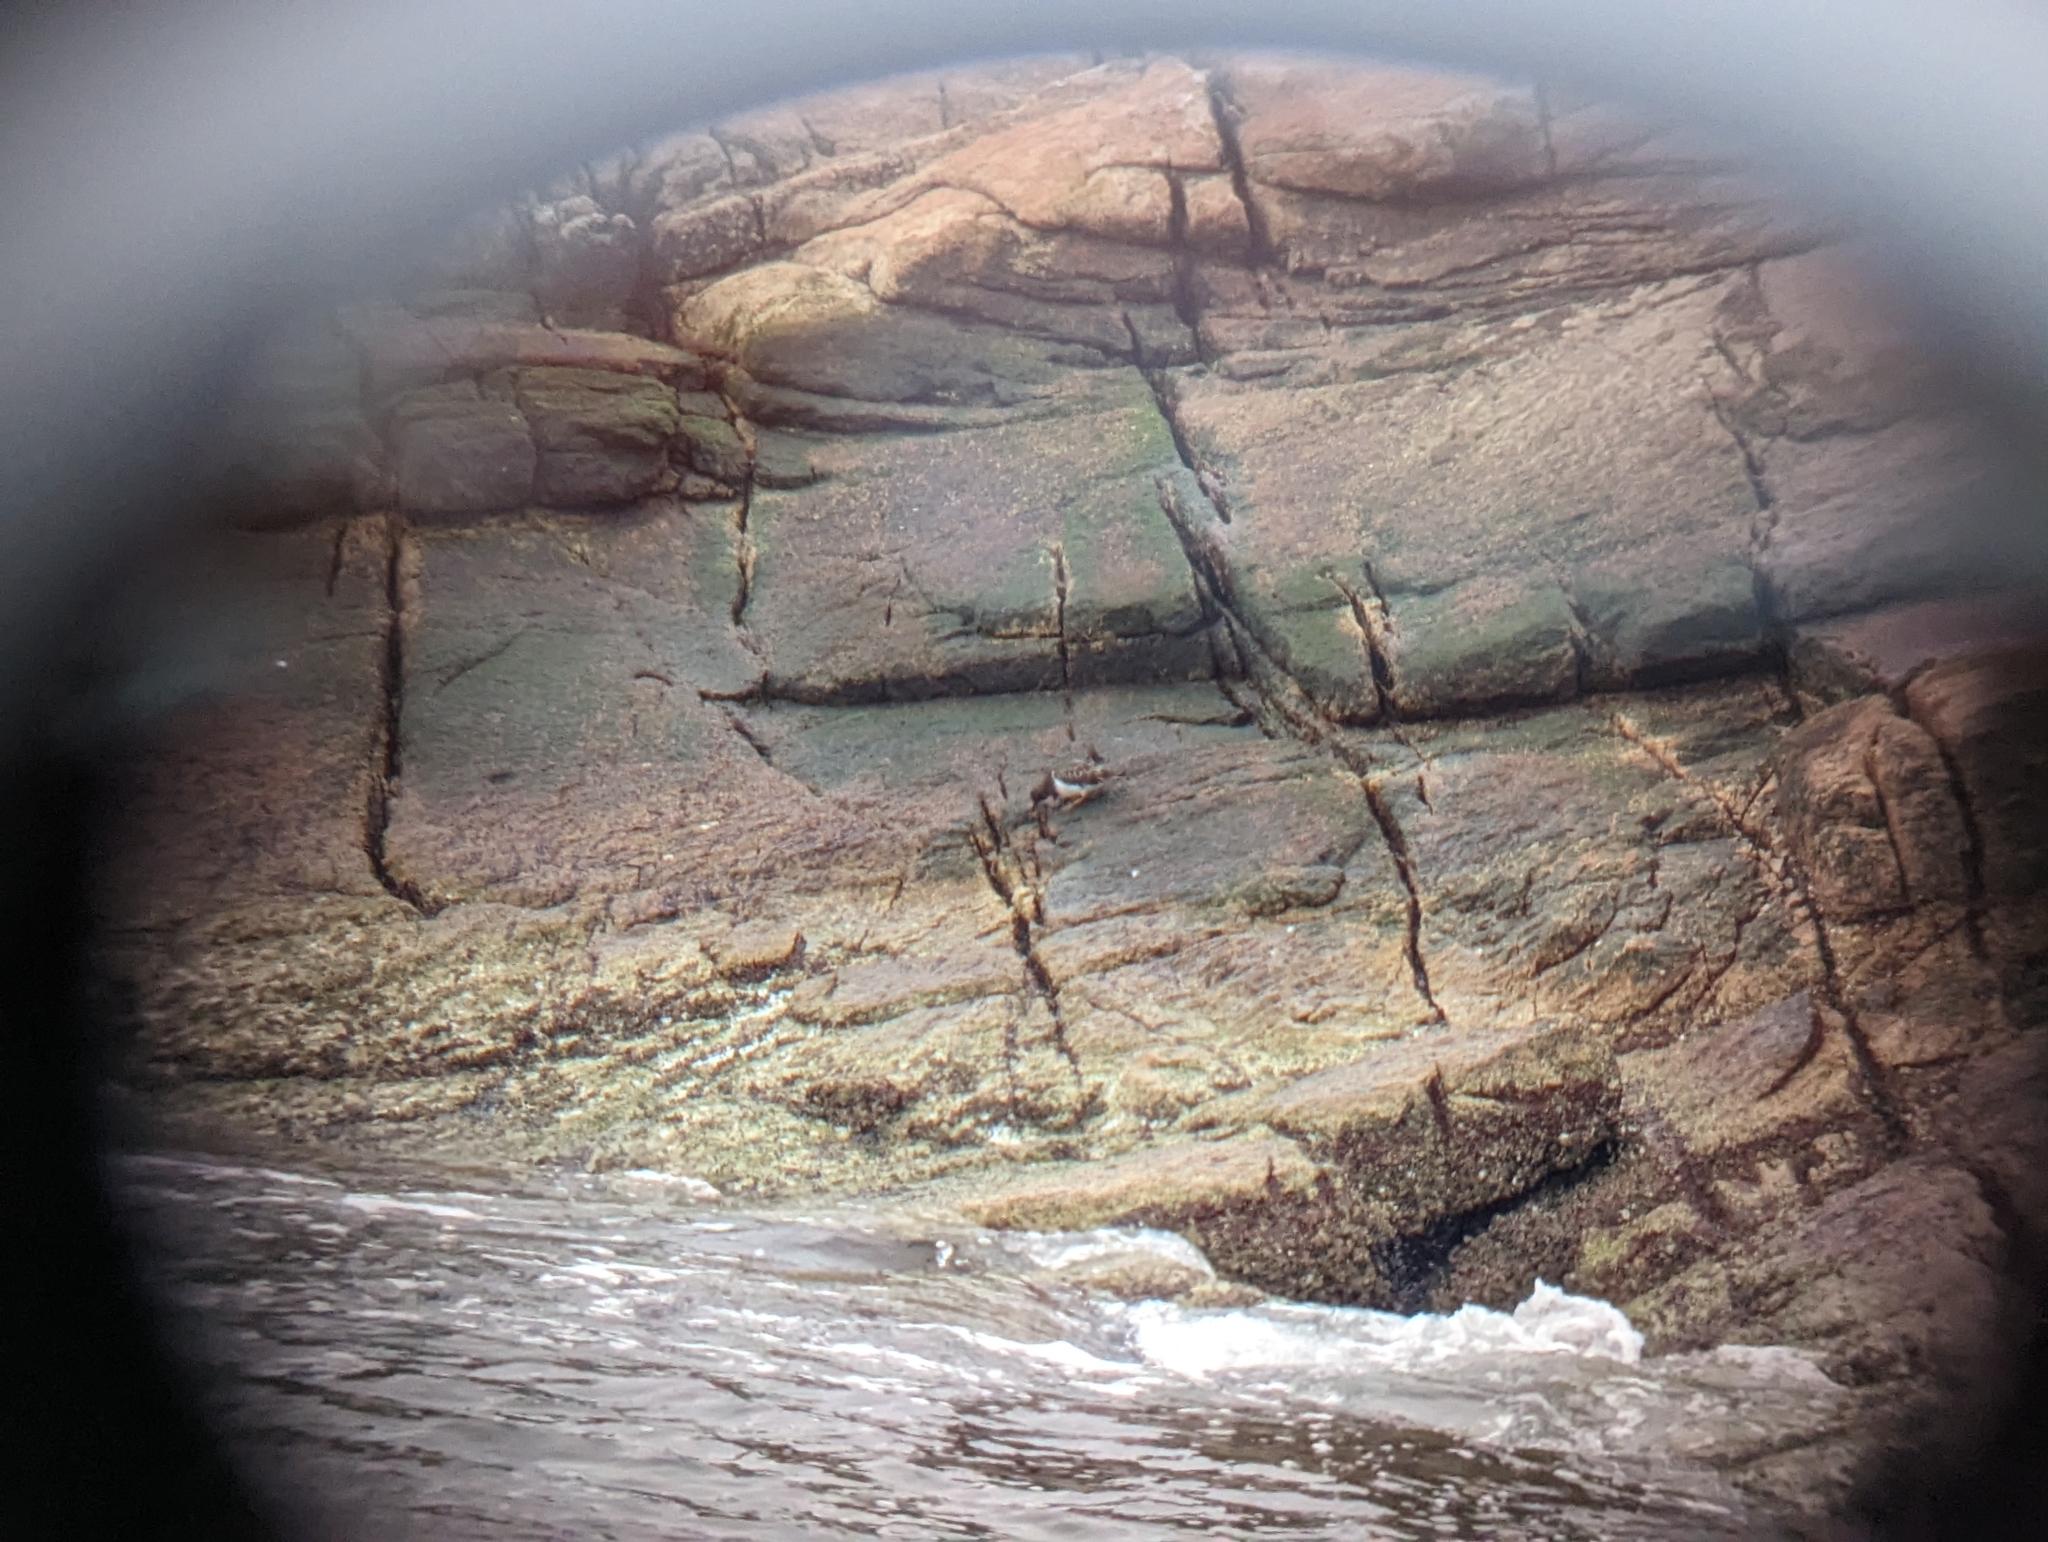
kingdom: Animalia
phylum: Chordata
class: Aves
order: Charadriiformes
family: Scolopacidae
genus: Arenaria
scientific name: Arenaria melanocephala
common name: Black turnstone
